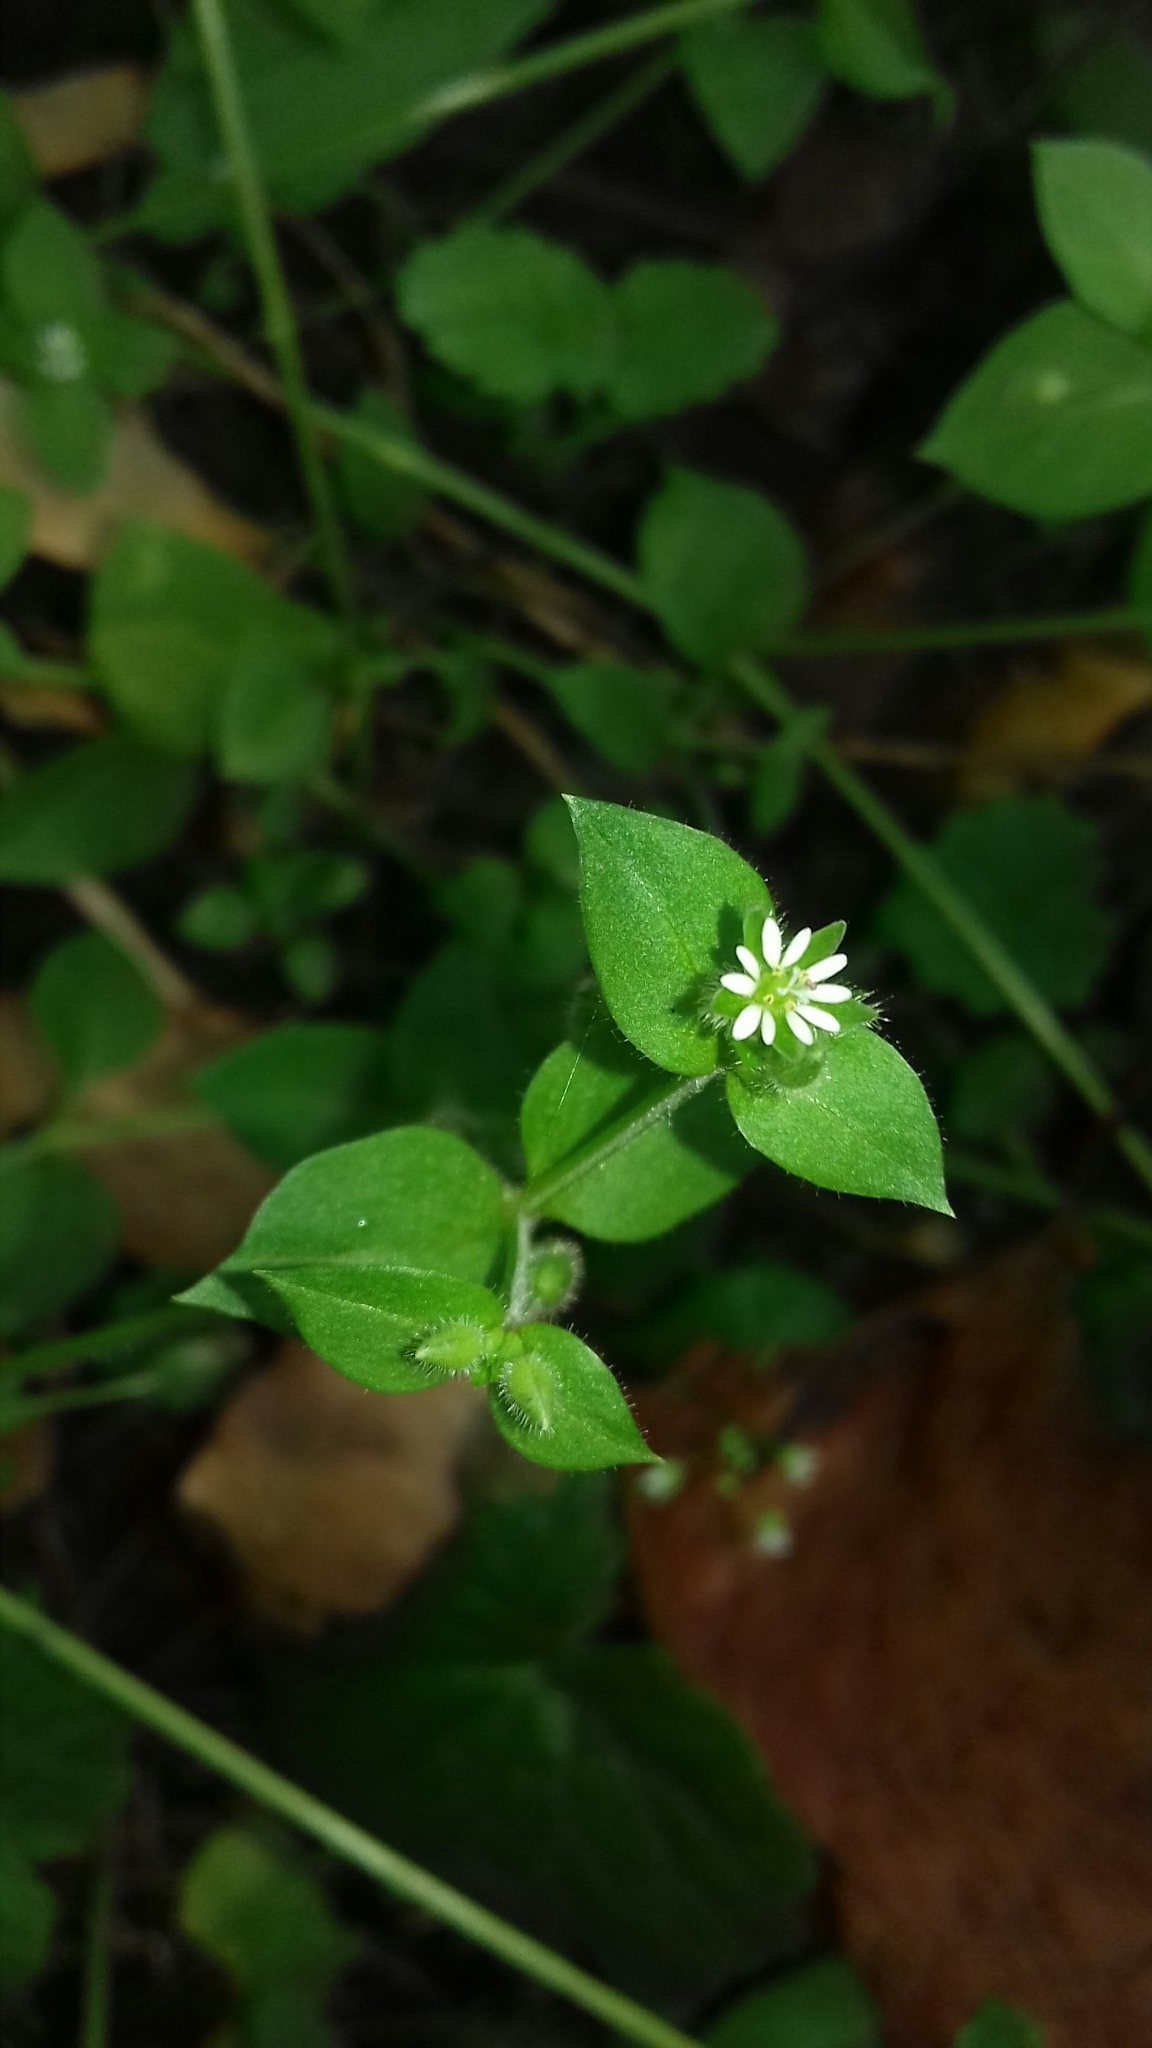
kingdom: Plantae
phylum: Tracheophyta
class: Magnoliopsida
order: Caryophyllales
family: Caryophyllaceae
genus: Stellaria
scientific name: Stellaria media
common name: Common chickweed
